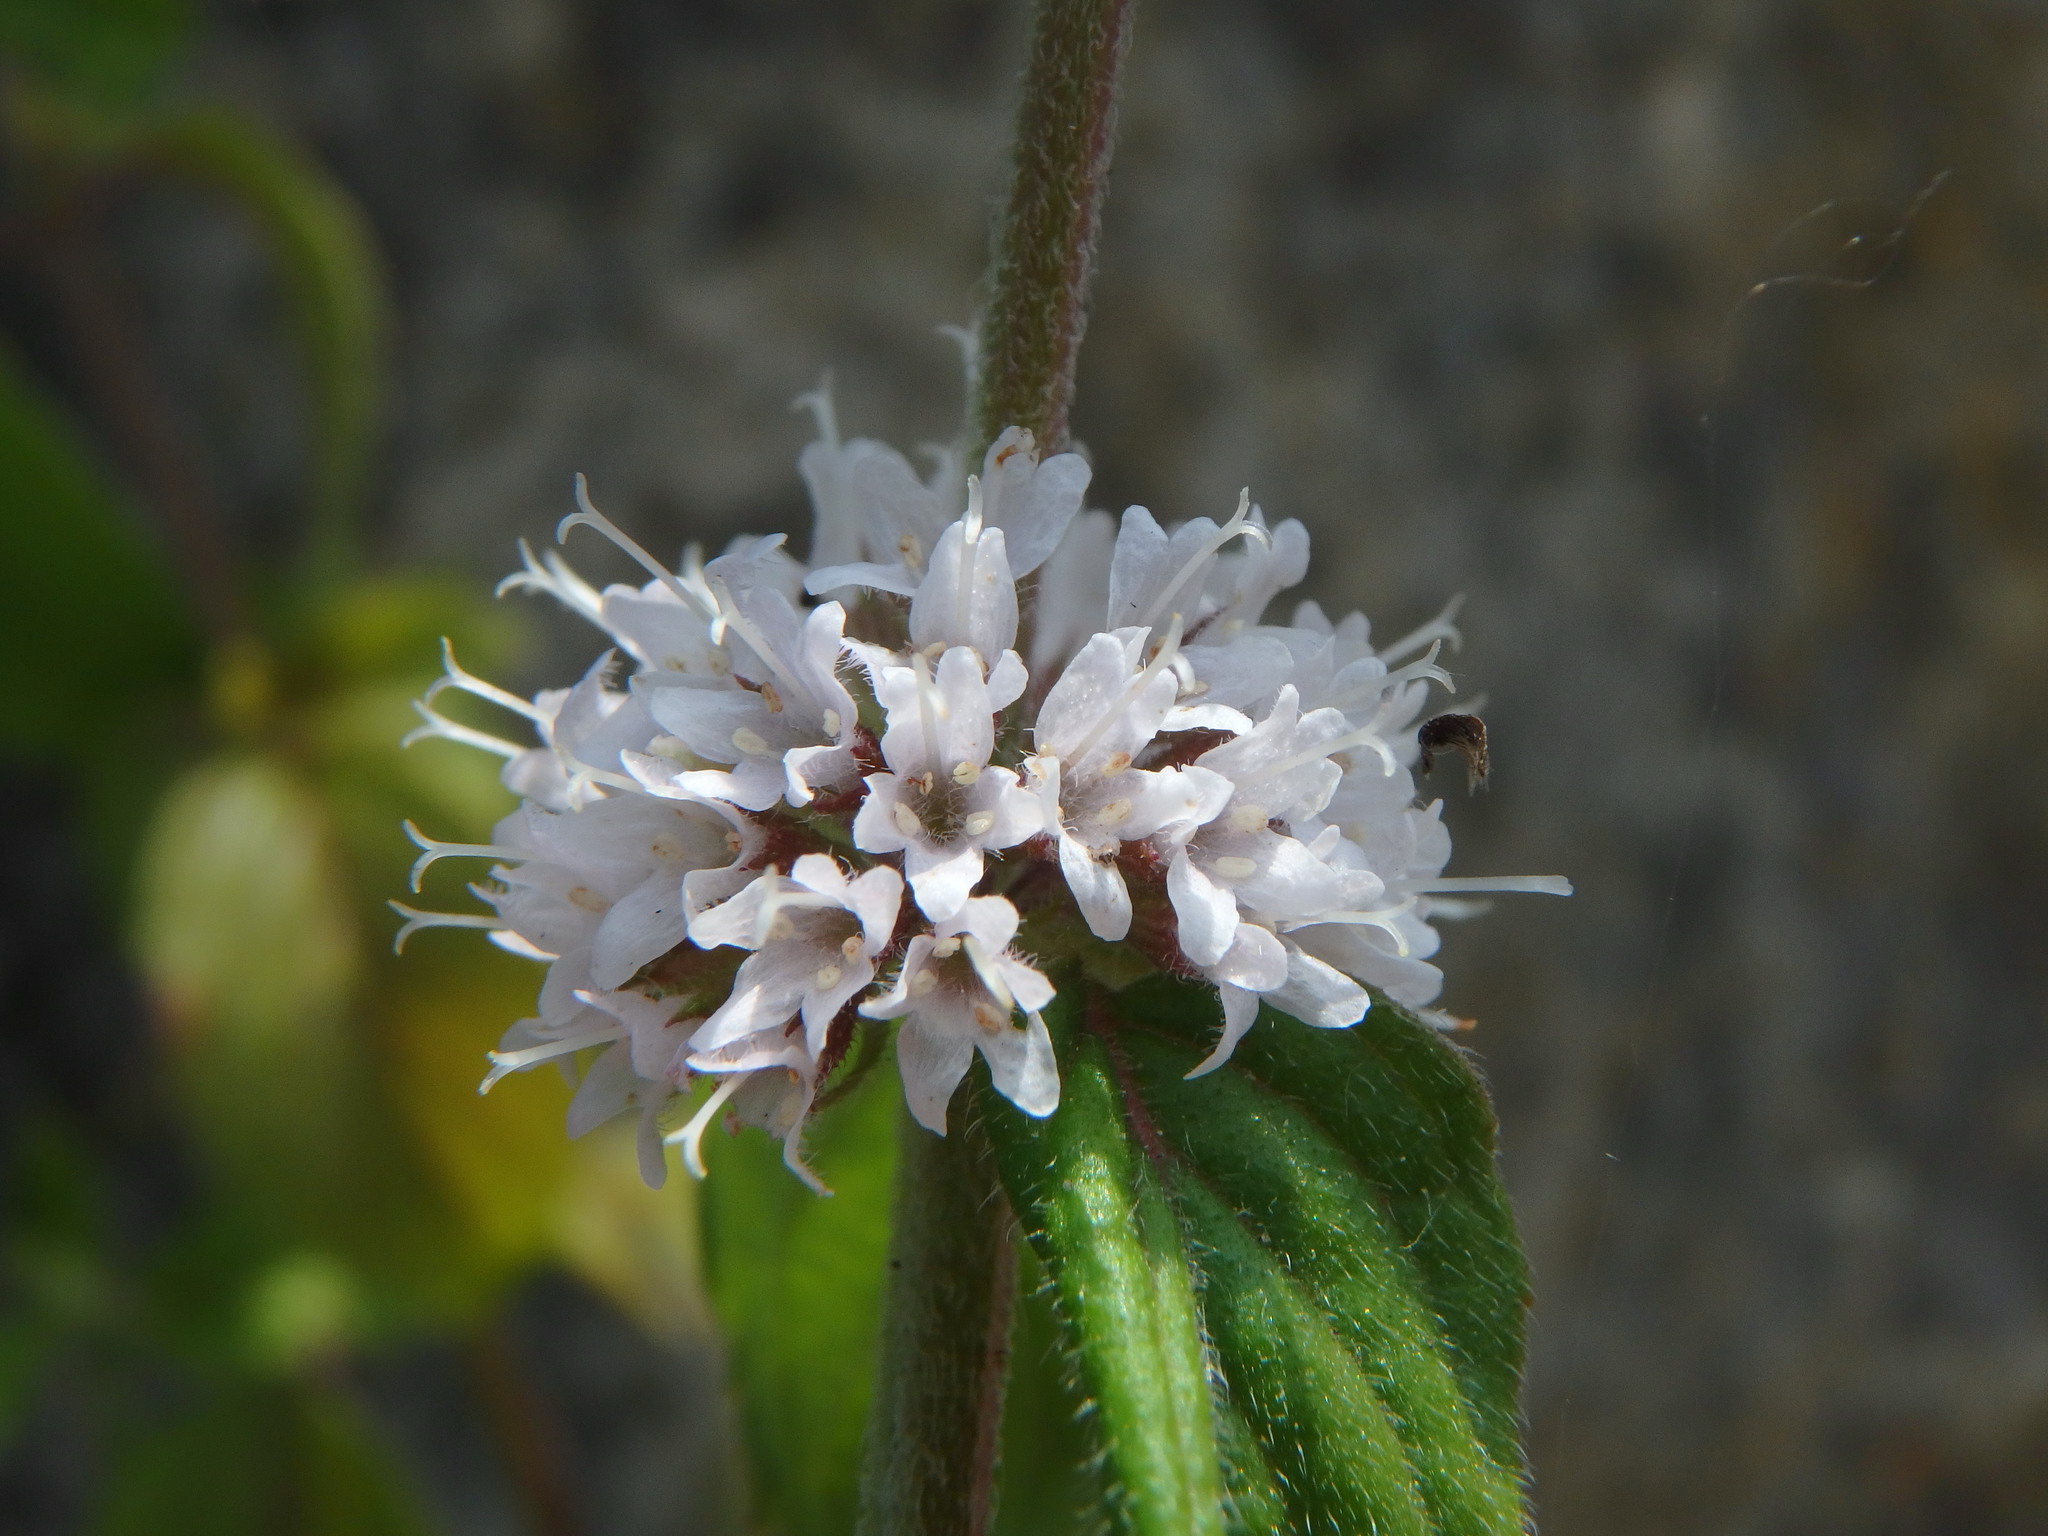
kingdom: Plantae
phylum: Tracheophyta
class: Magnoliopsida
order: Lamiales
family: Lamiaceae
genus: Mentha
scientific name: Mentha arvensis
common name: Corn mint
